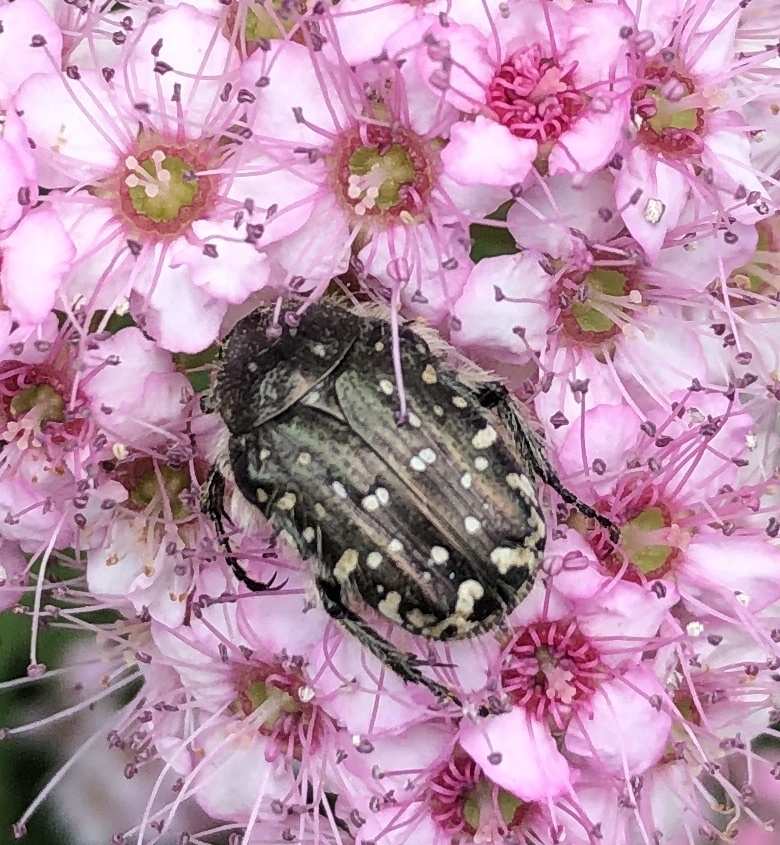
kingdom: Animalia
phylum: Arthropoda
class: Insecta
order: Coleoptera
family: Scarabaeidae
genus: Oxythyrea
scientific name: Oxythyrea funesta
